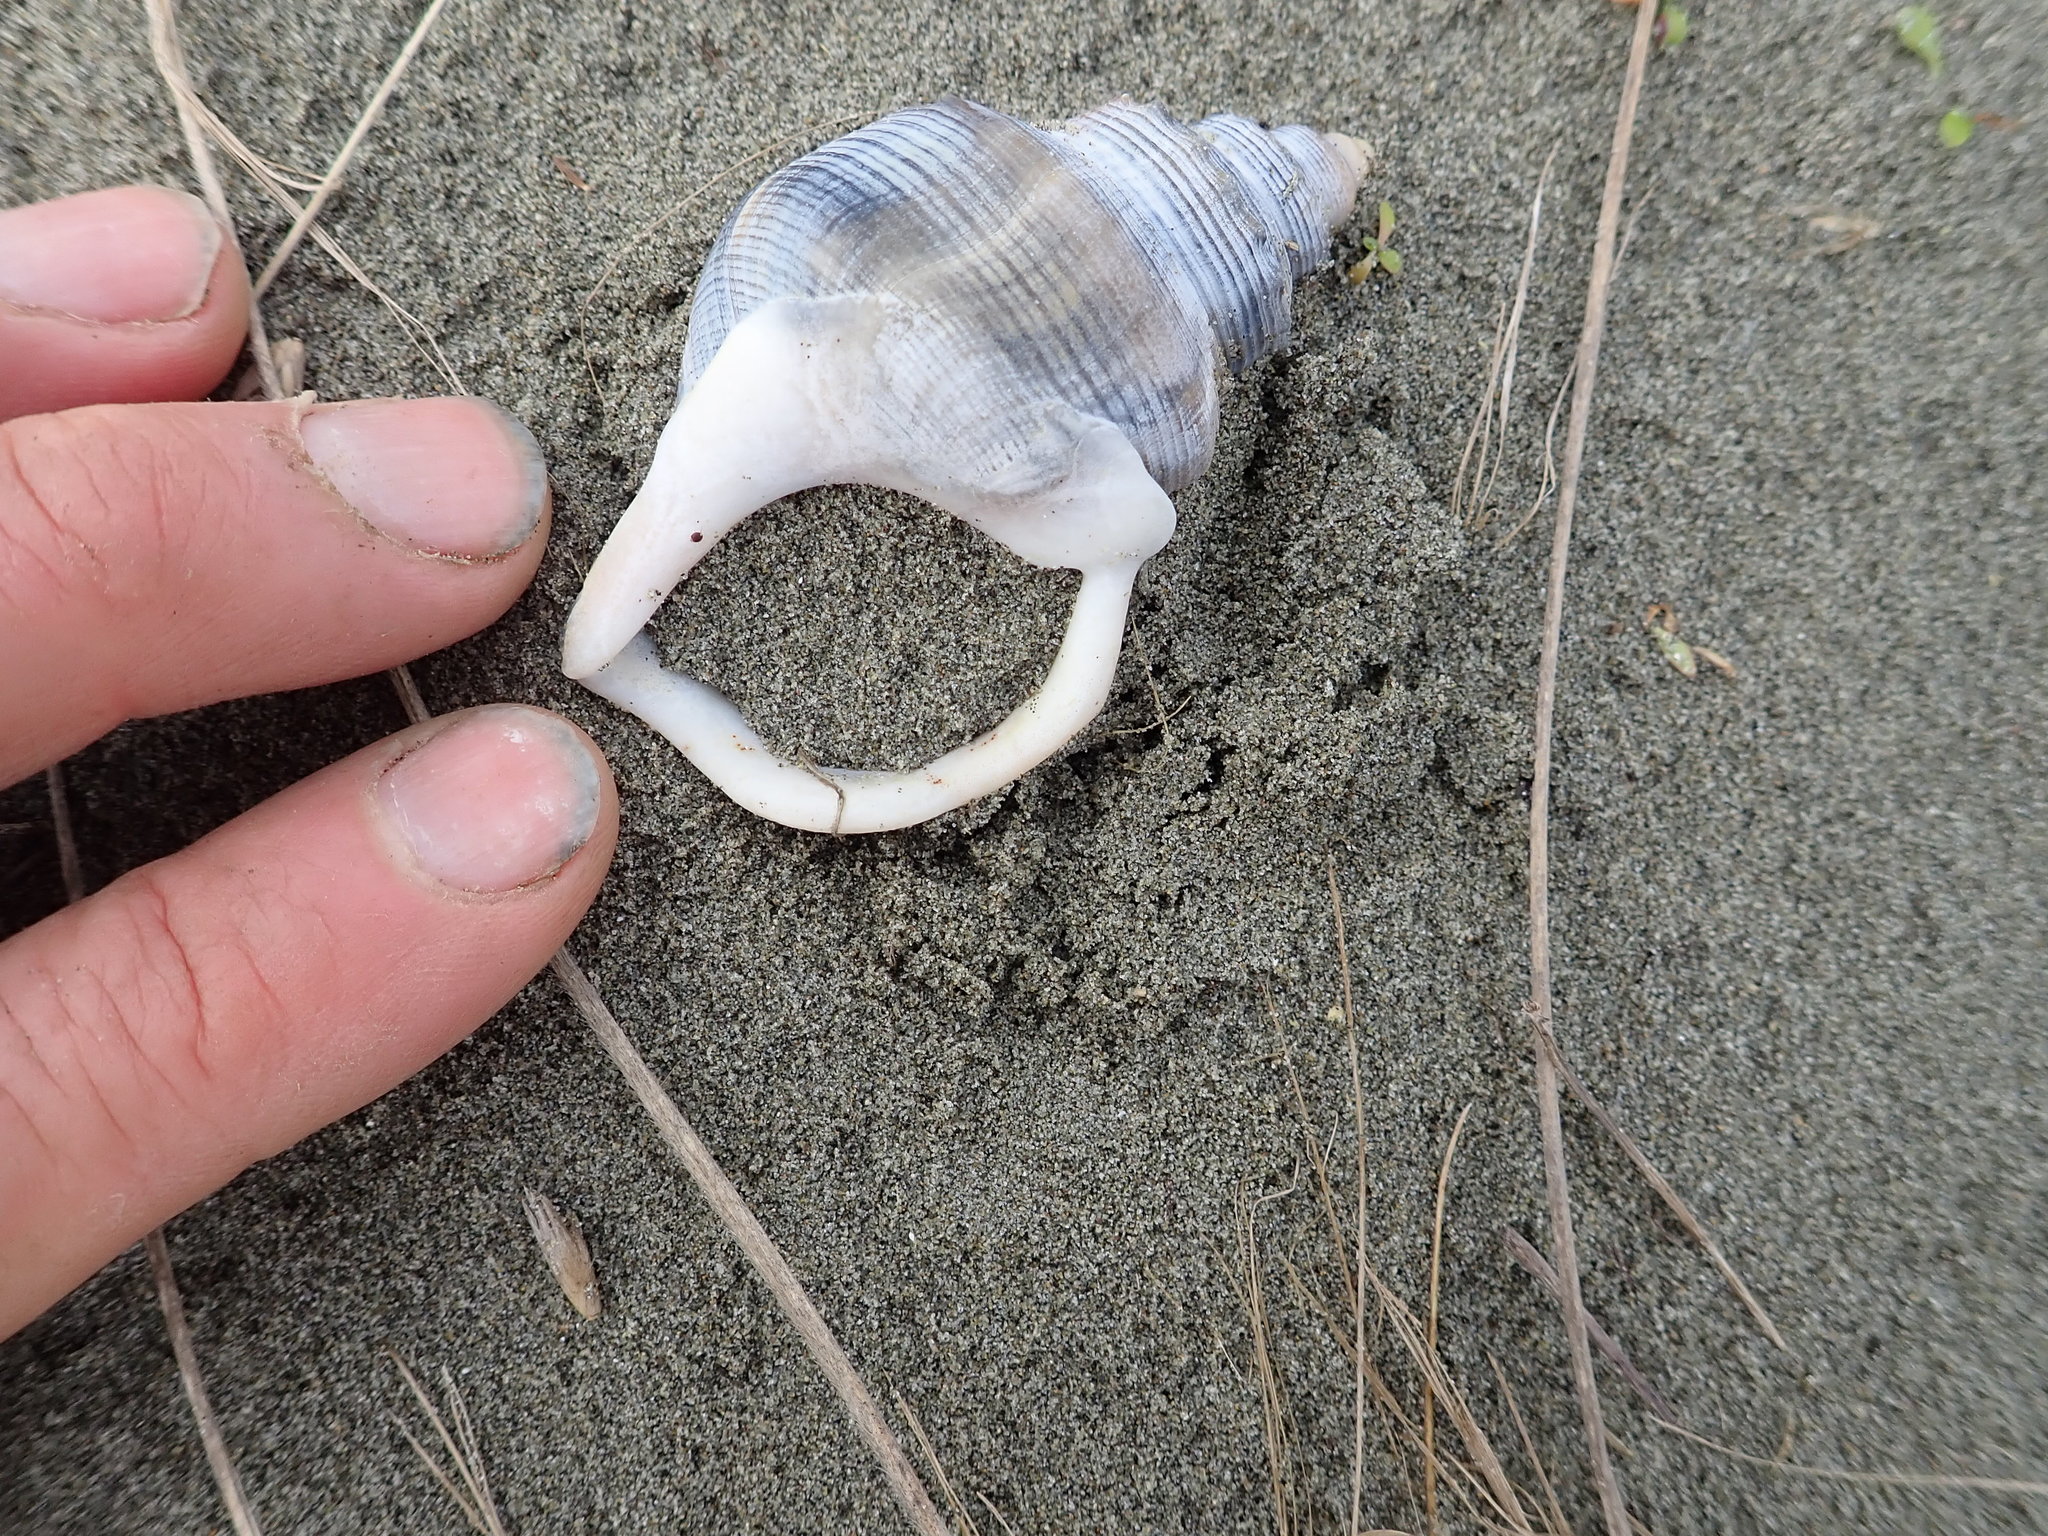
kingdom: Animalia
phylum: Mollusca
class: Gastropoda
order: Littorinimorpha
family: Struthiolariidae
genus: Struthiolaria
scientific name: Struthiolaria papulosa
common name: Large ostrich foot
